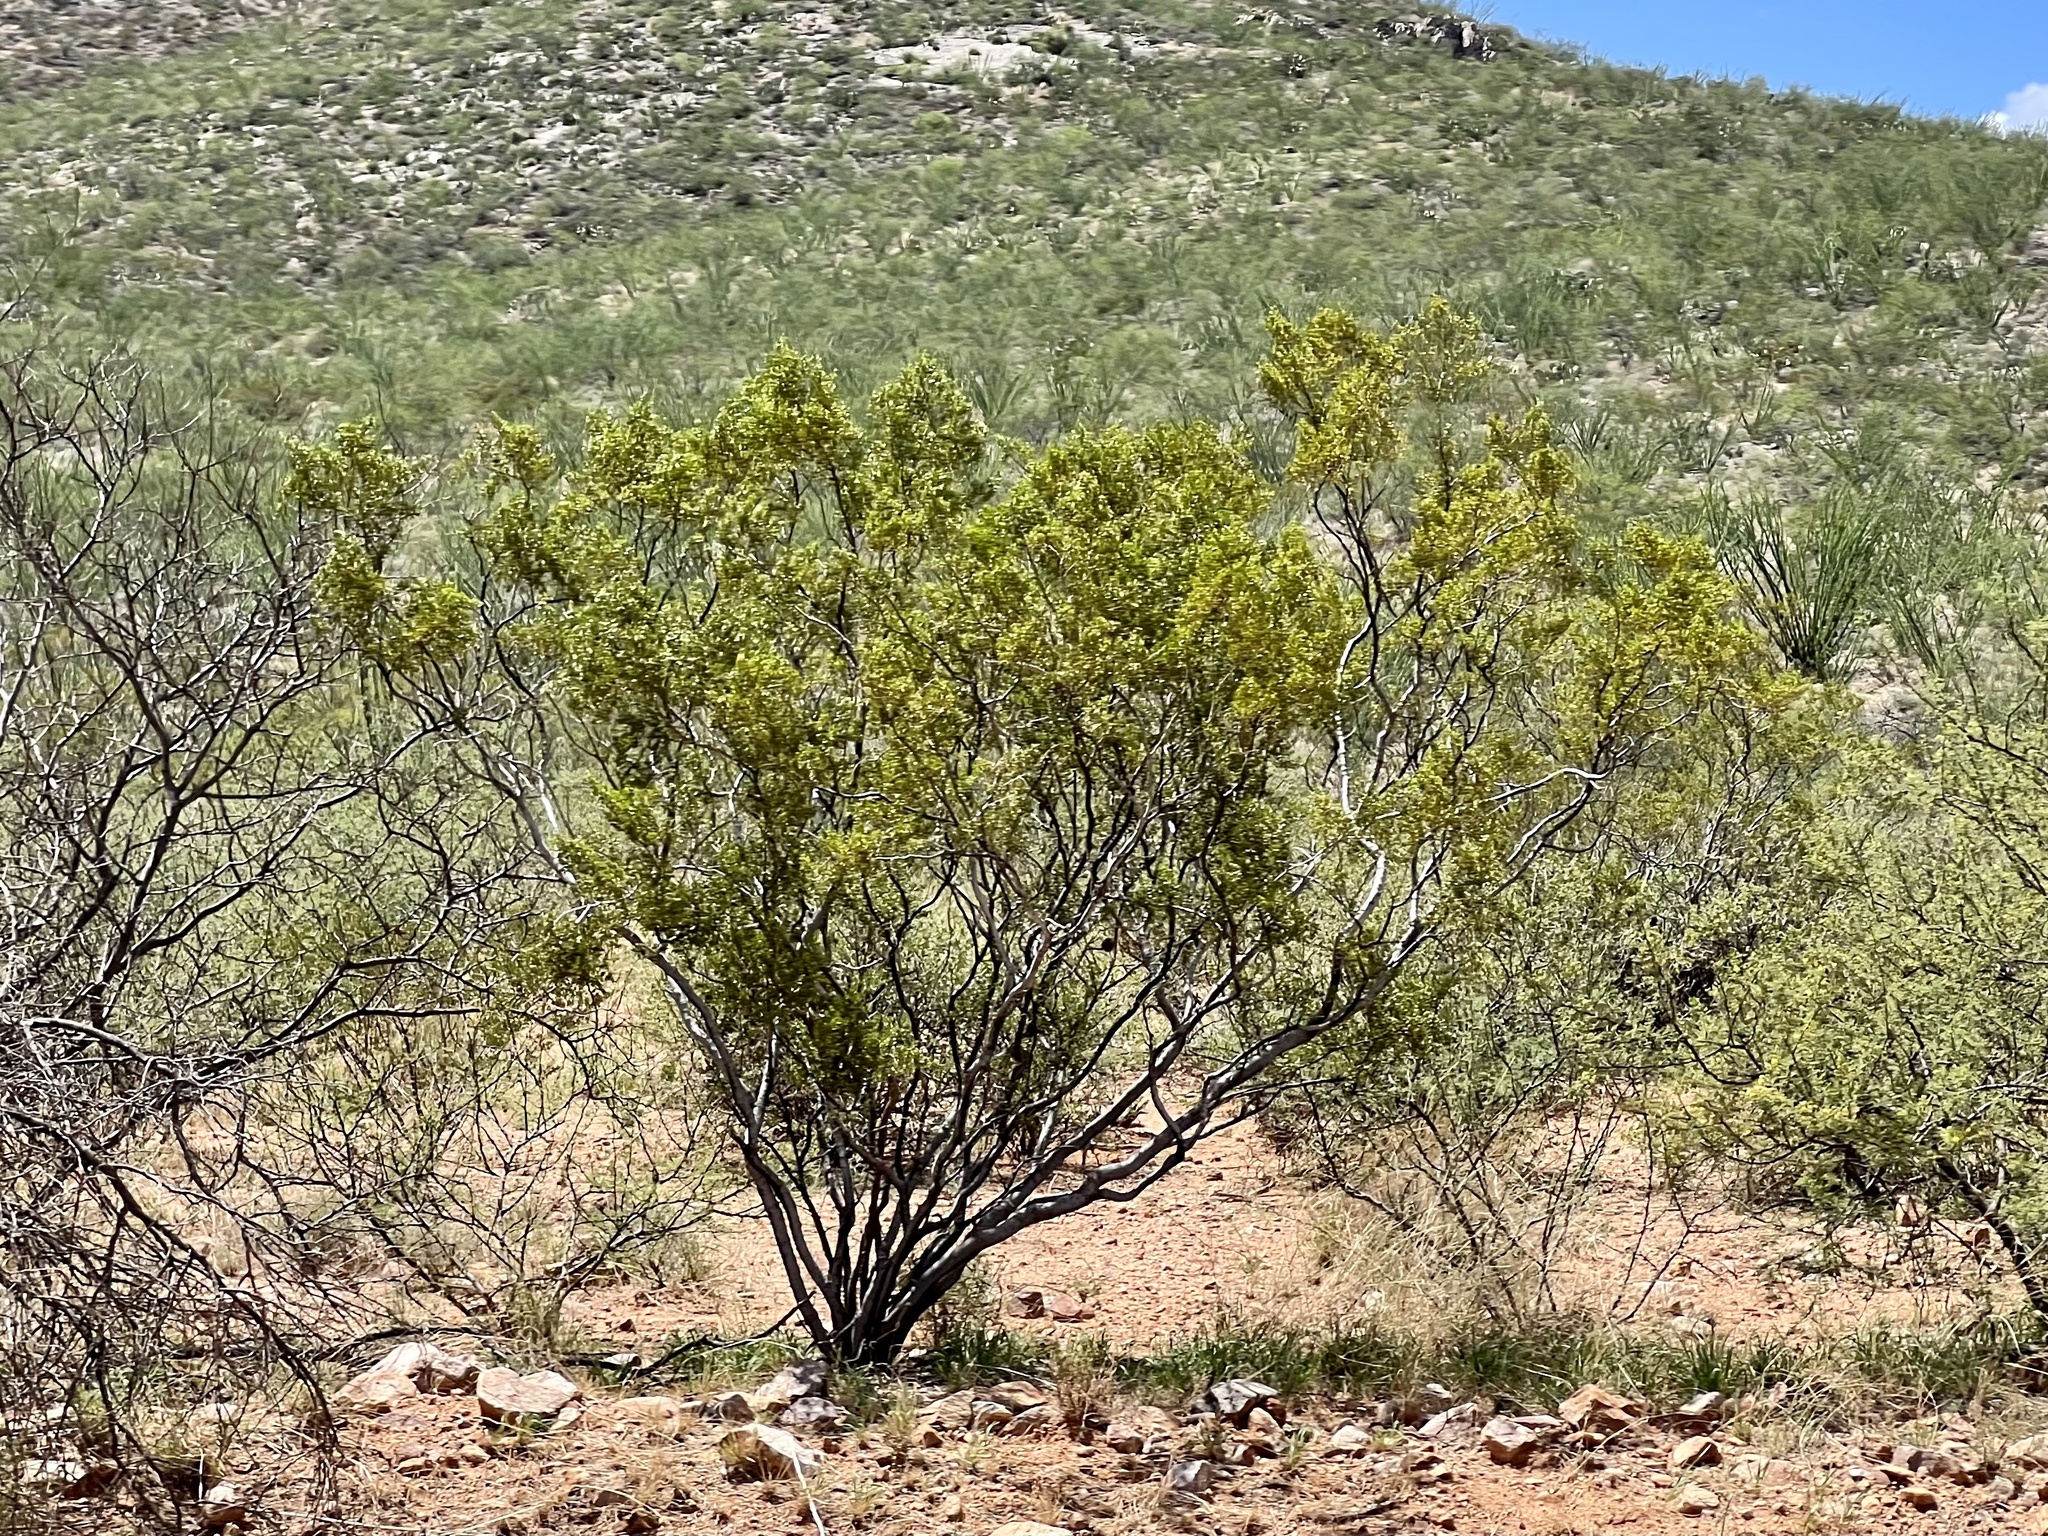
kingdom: Plantae
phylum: Tracheophyta
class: Magnoliopsida
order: Zygophyllales
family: Zygophyllaceae
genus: Larrea
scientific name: Larrea tridentata
